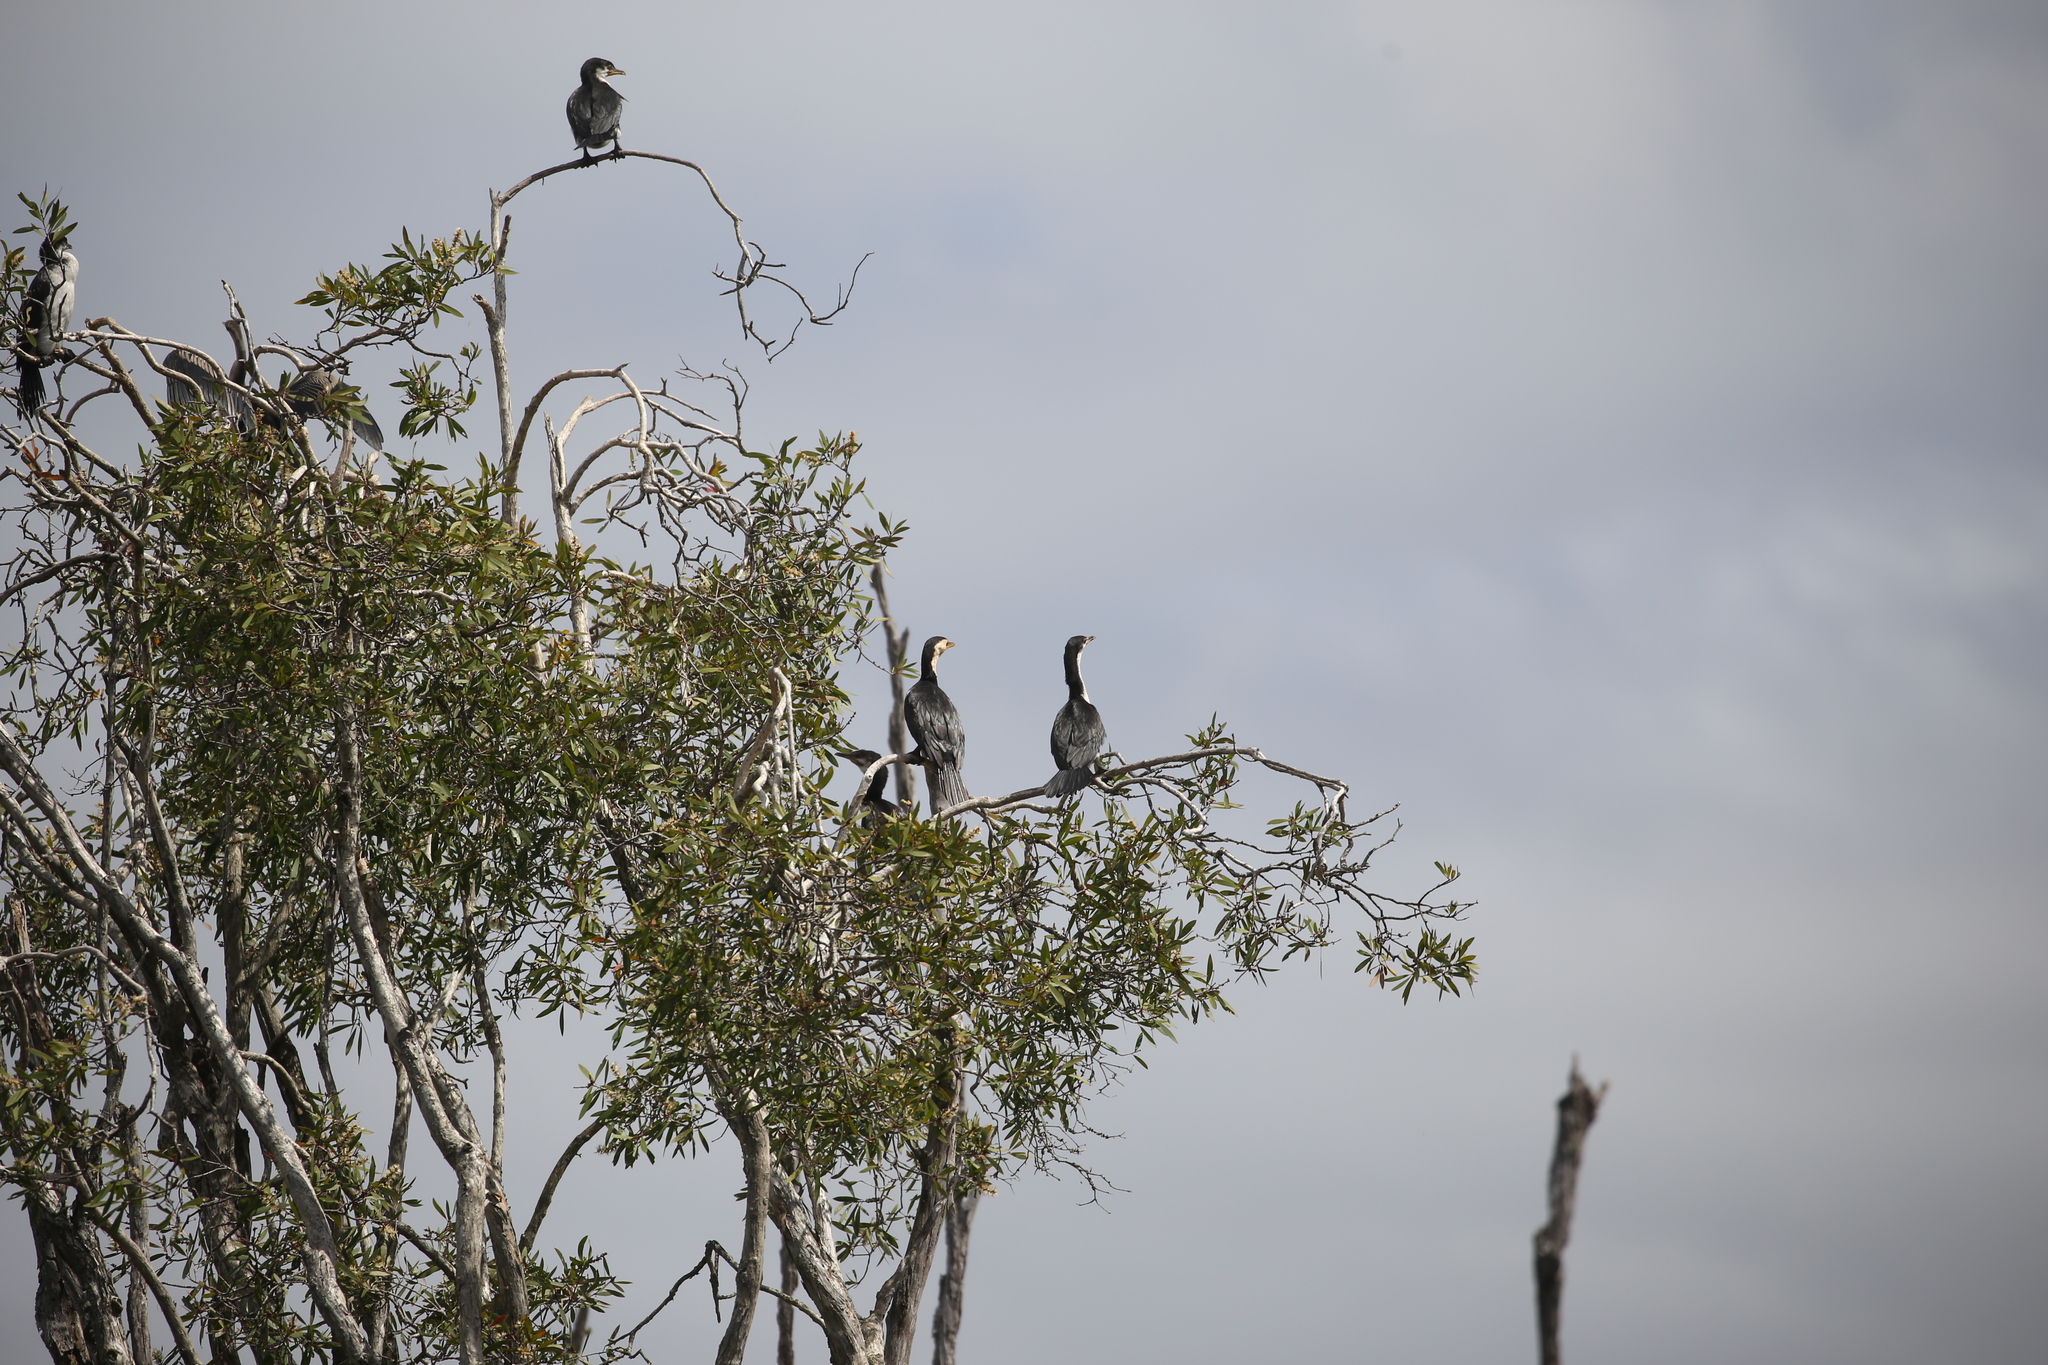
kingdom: Animalia
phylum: Chordata
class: Aves
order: Suliformes
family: Phalacrocoracidae
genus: Microcarbo
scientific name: Microcarbo melanoleucos
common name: Little pied cormorant
